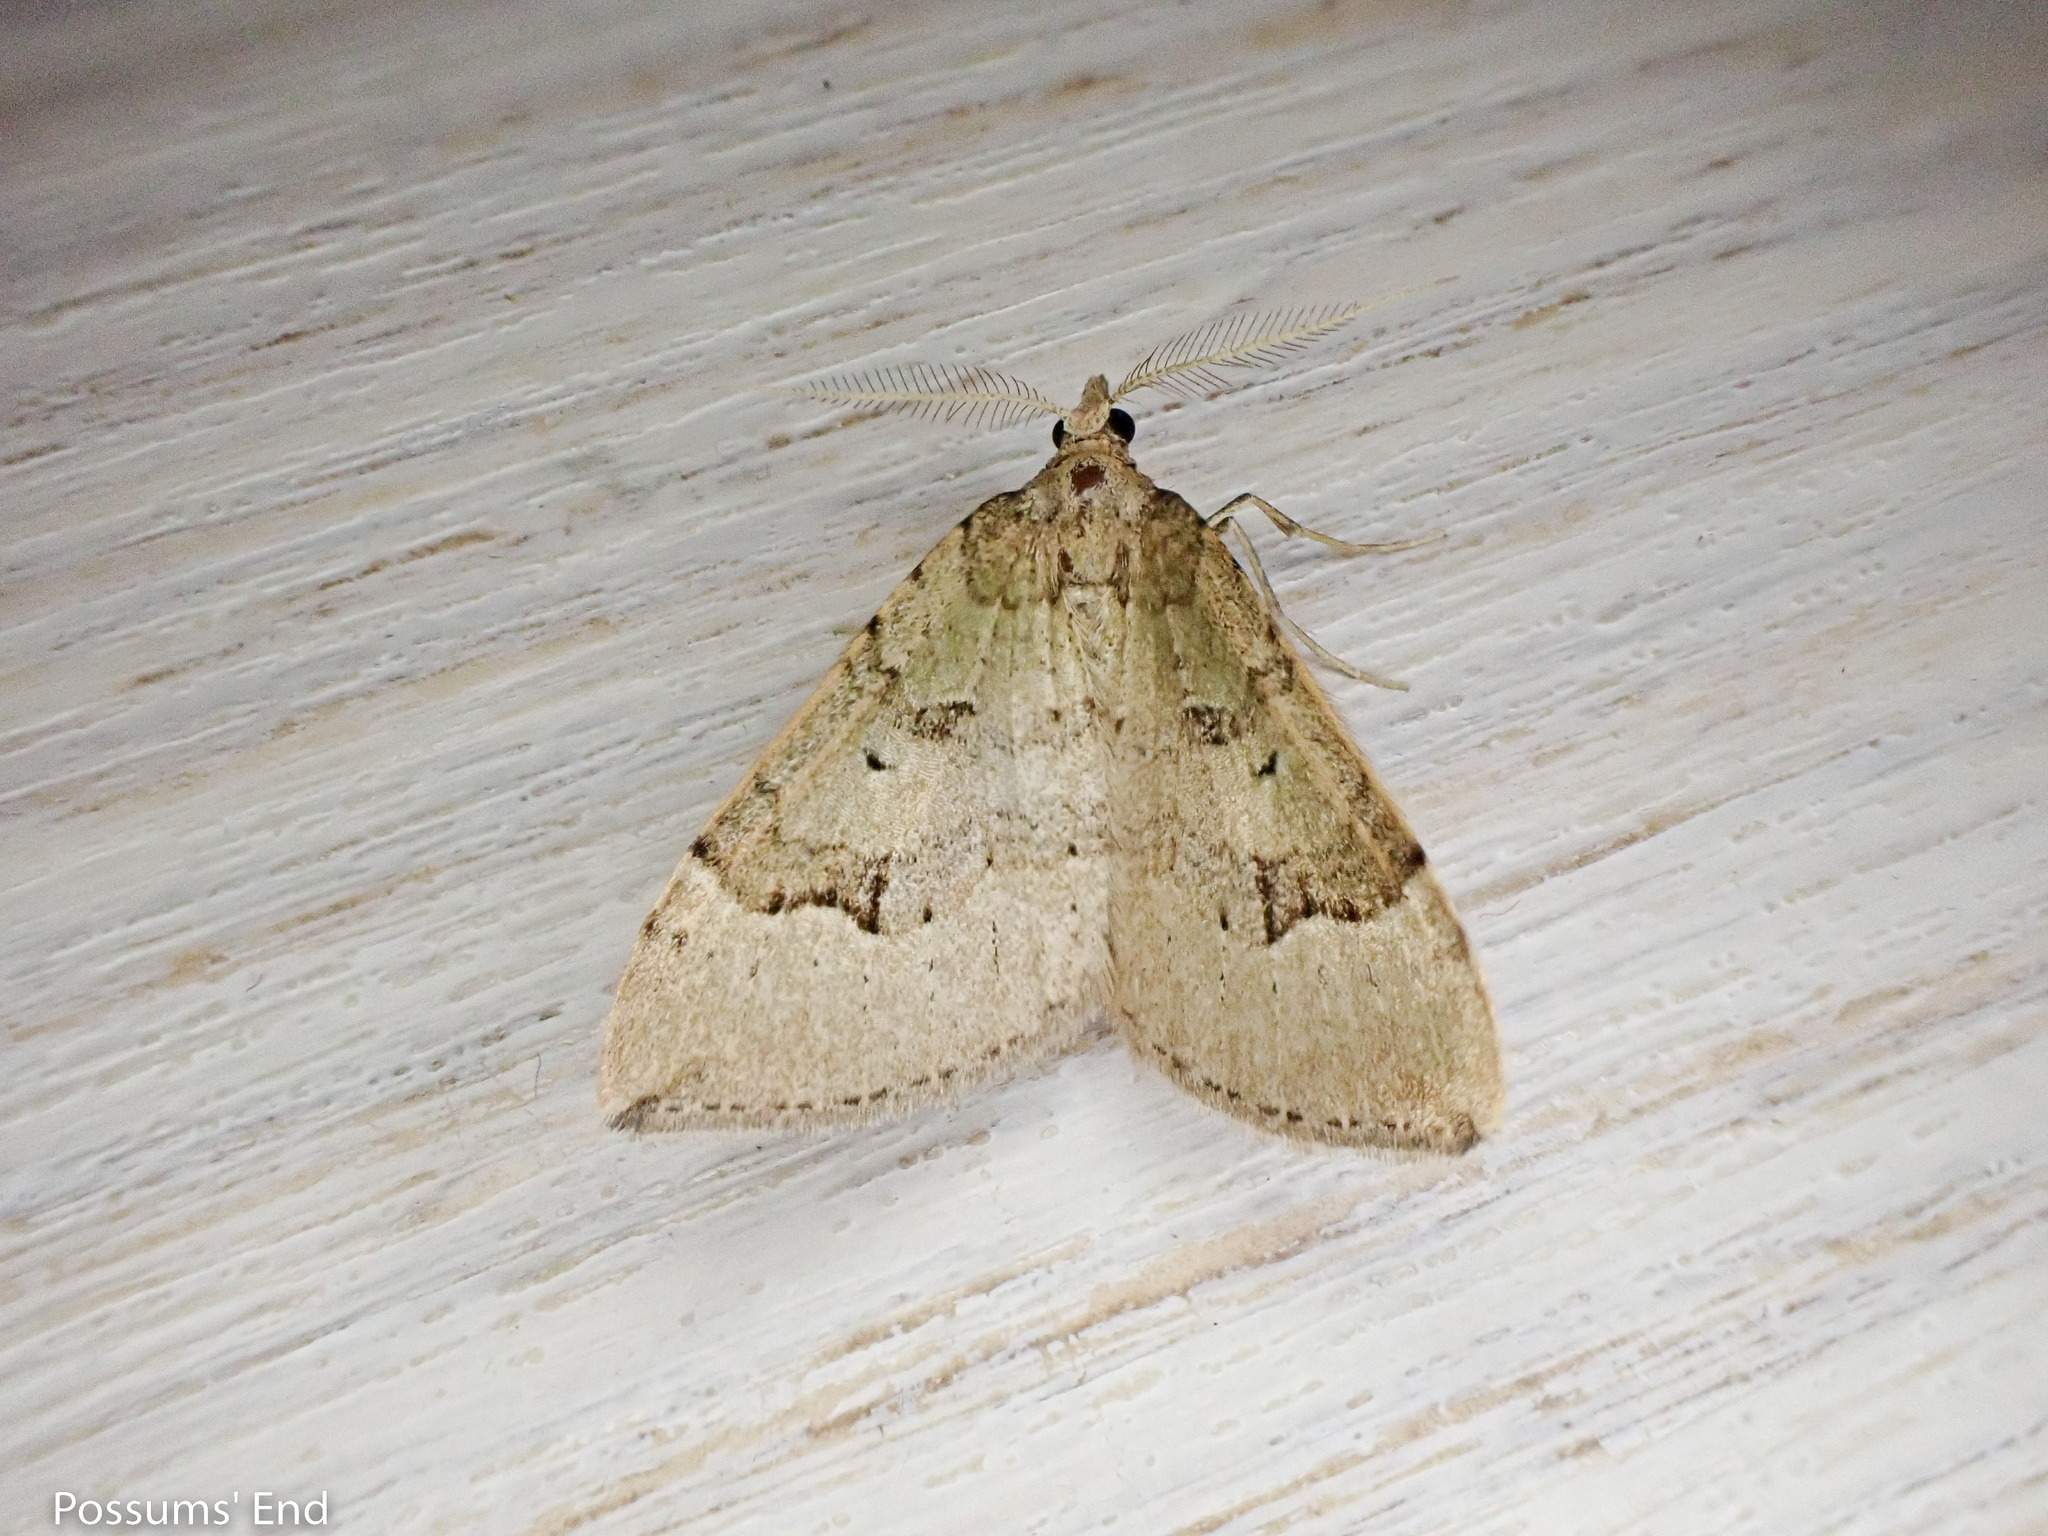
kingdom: Animalia
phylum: Arthropoda
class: Insecta
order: Lepidoptera
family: Geometridae
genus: Epyaxa
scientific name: Epyaxa rosearia
